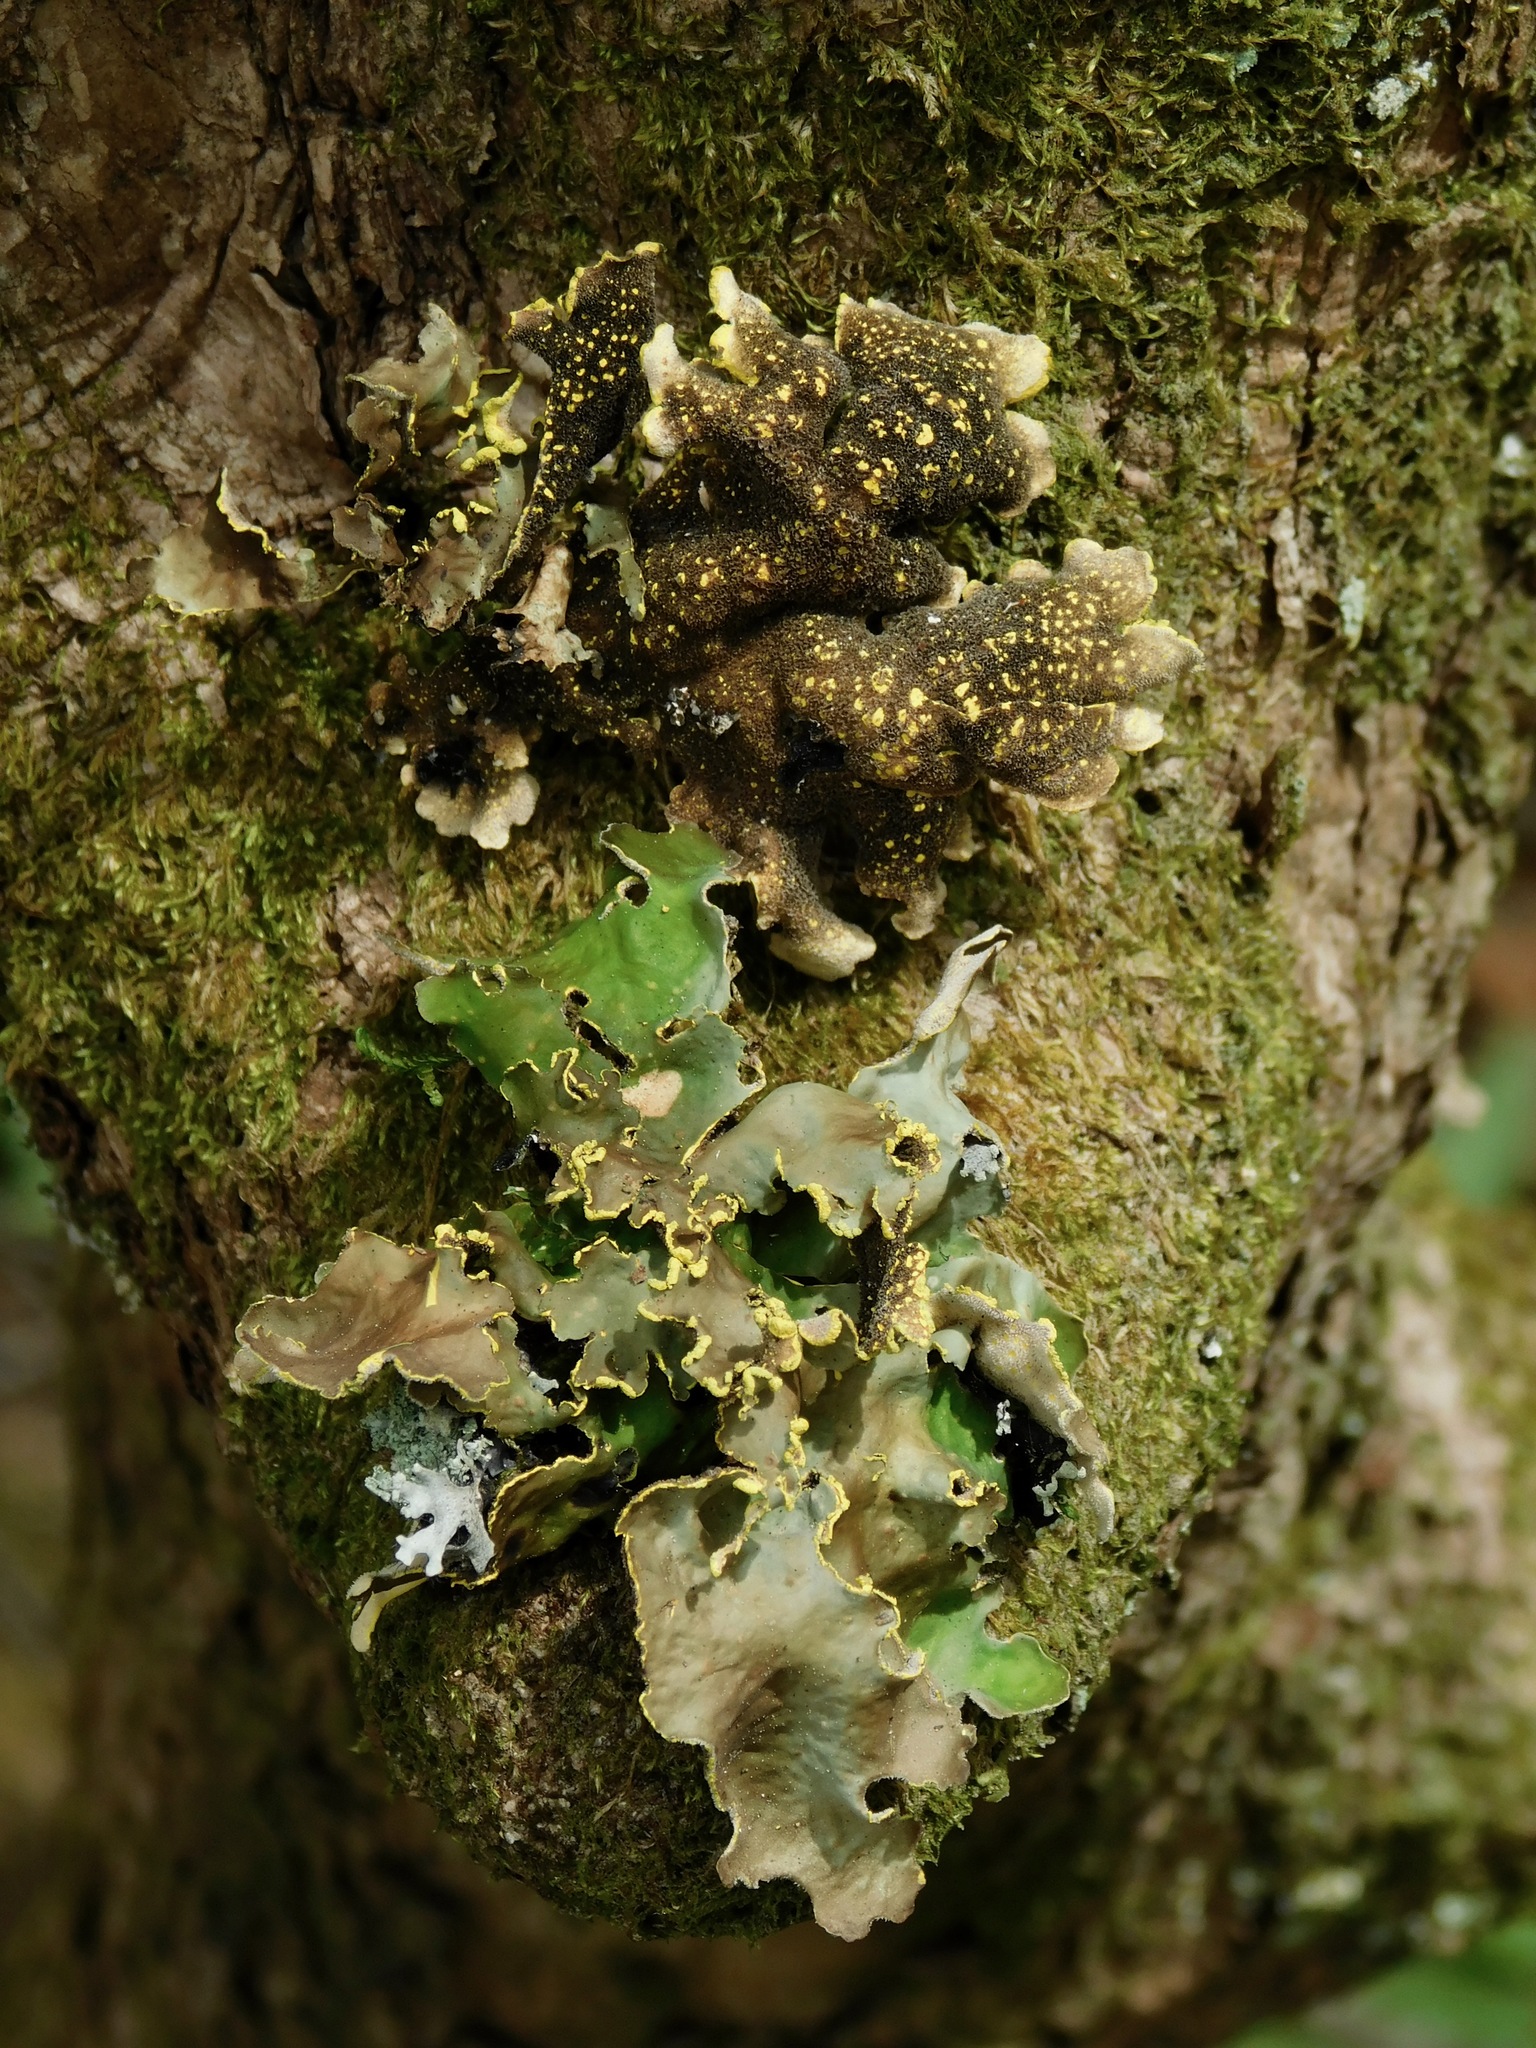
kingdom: Fungi
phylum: Ascomycota
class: Lecanoromycetes
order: Peltigerales
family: Lobariaceae
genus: Pseudocyphellaria
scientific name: Pseudocyphellaria aurata
